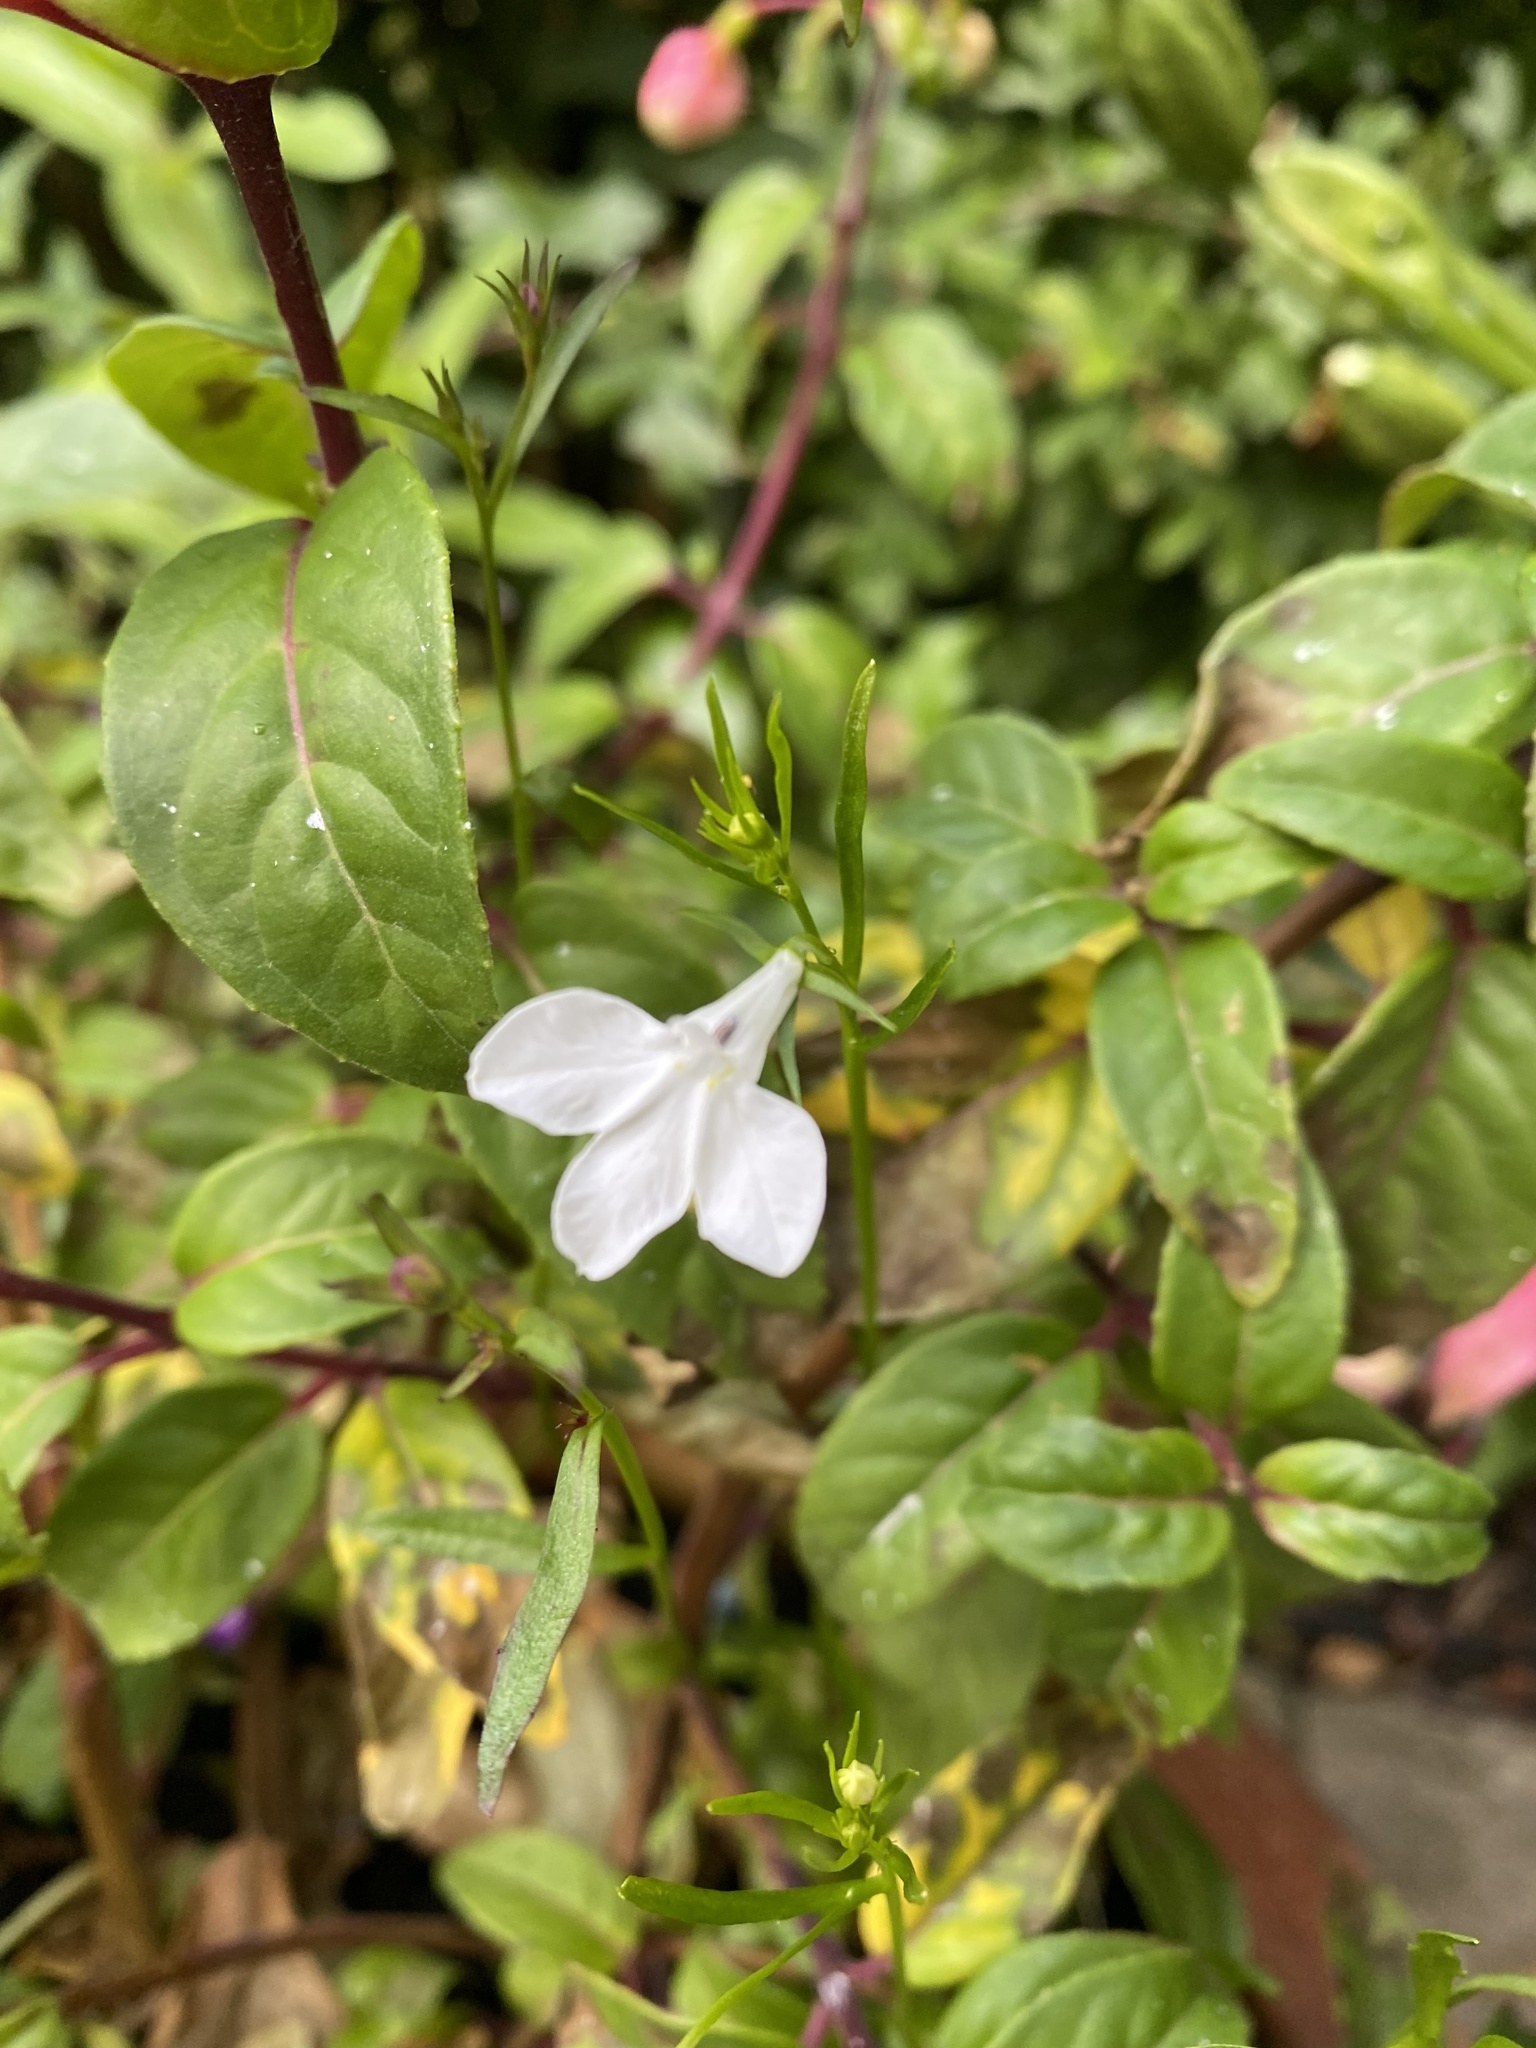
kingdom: Plantae
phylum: Tracheophyta
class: Magnoliopsida
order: Asterales
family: Campanulaceae
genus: Lobelia
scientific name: Lobelia erinus
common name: Edging lobelia
